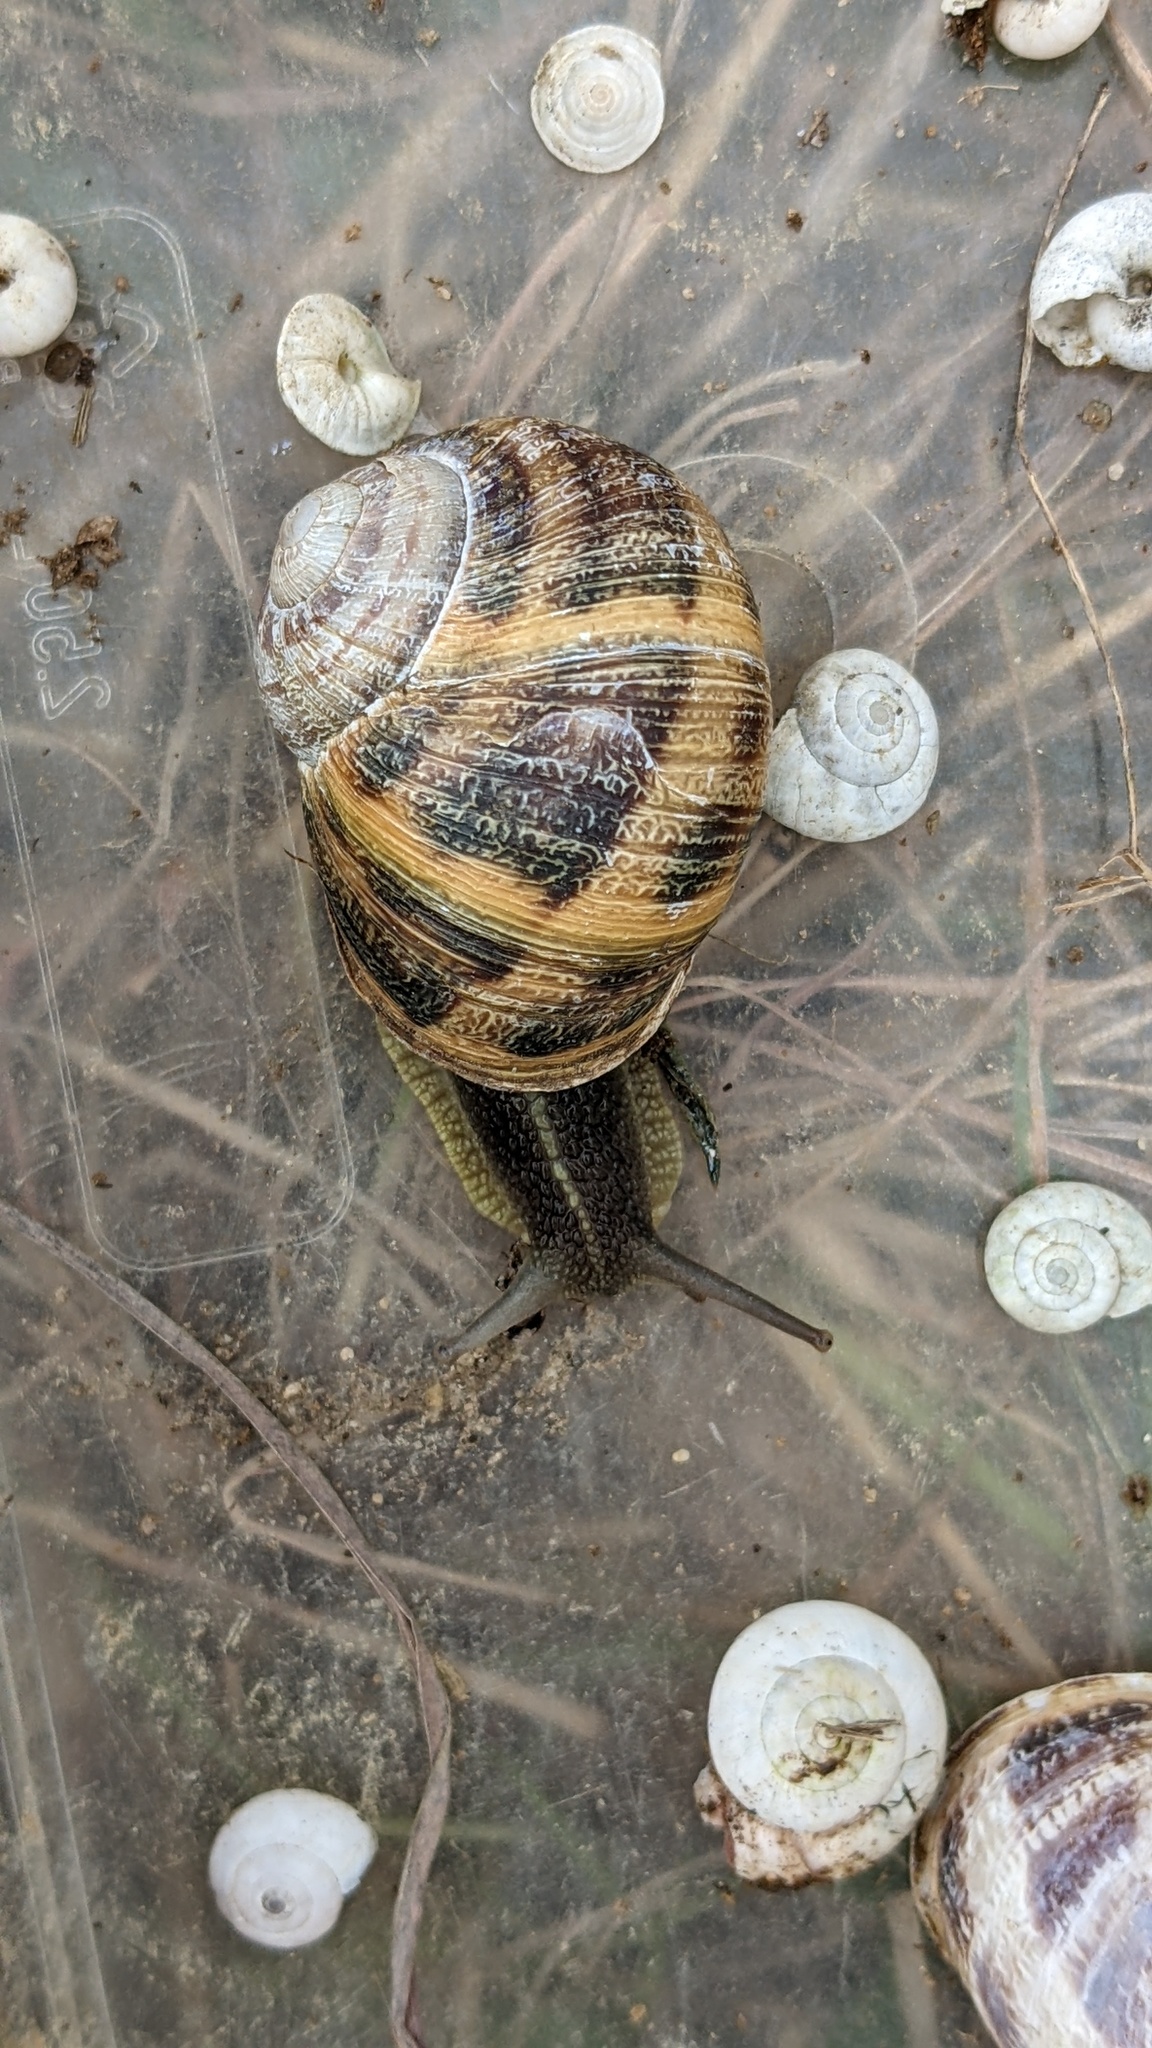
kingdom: Animalia
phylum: Mollusca
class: Gastropoda
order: Stylommatophora
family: Helicidae
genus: Cornu
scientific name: Cornu aspersum
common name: Brown garden snail
